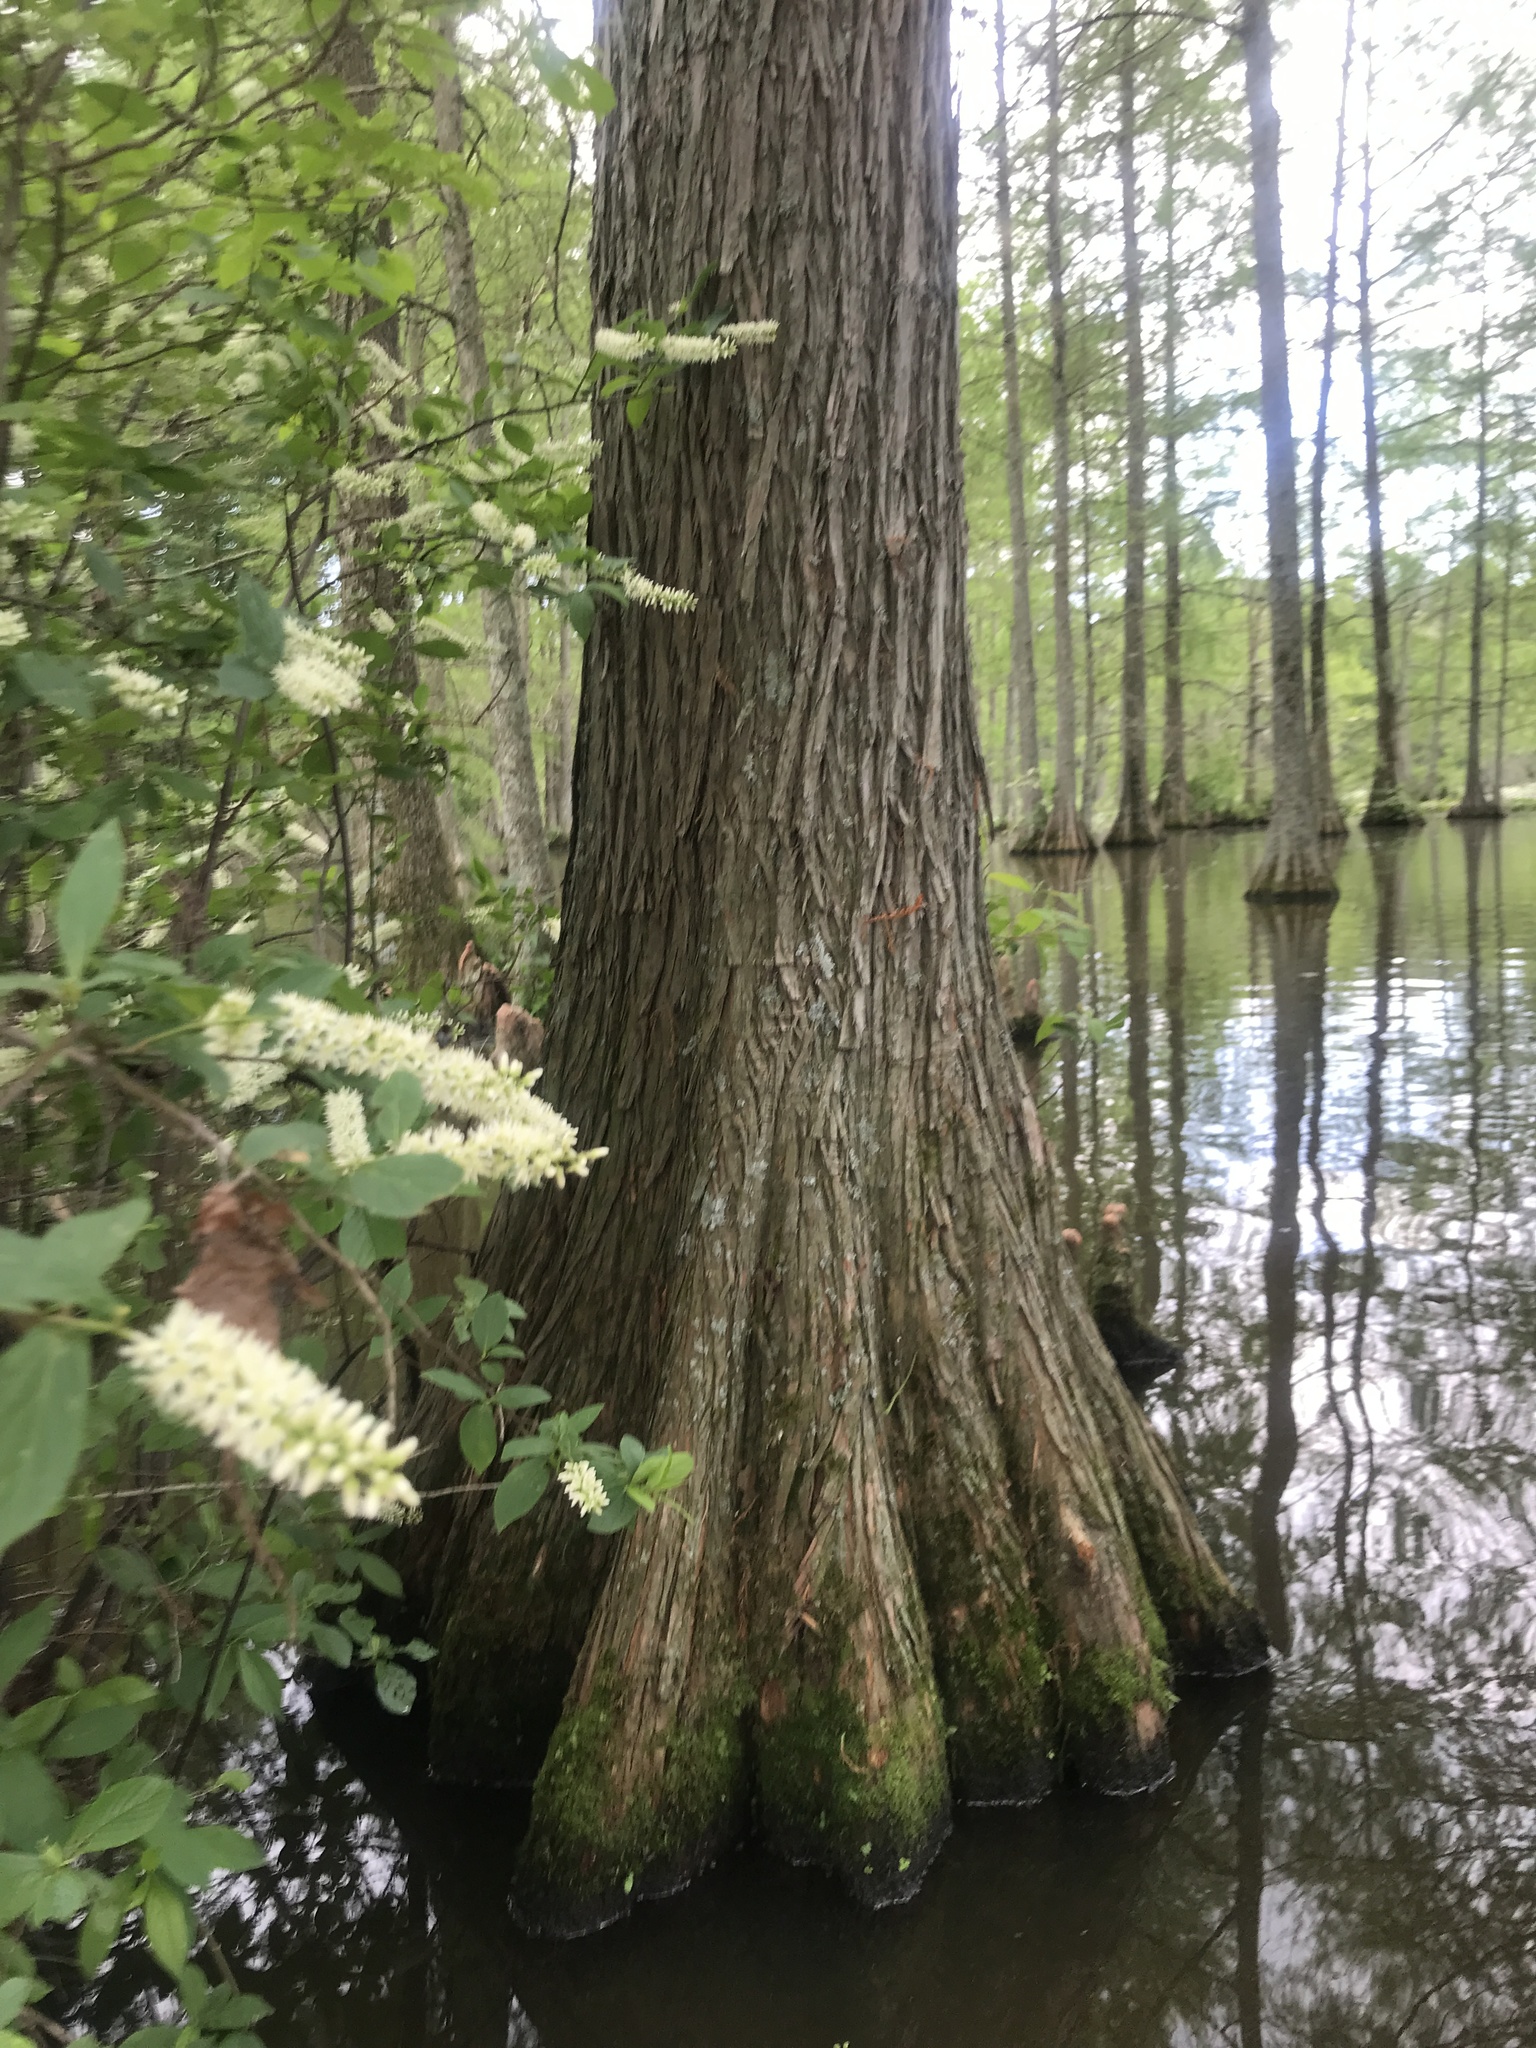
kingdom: Plantae
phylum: Tracheophyta
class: Pinopsida
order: Pinales
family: Cupressaceae
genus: Taxodium
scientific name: Taxodium distichum
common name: Bald cypress
